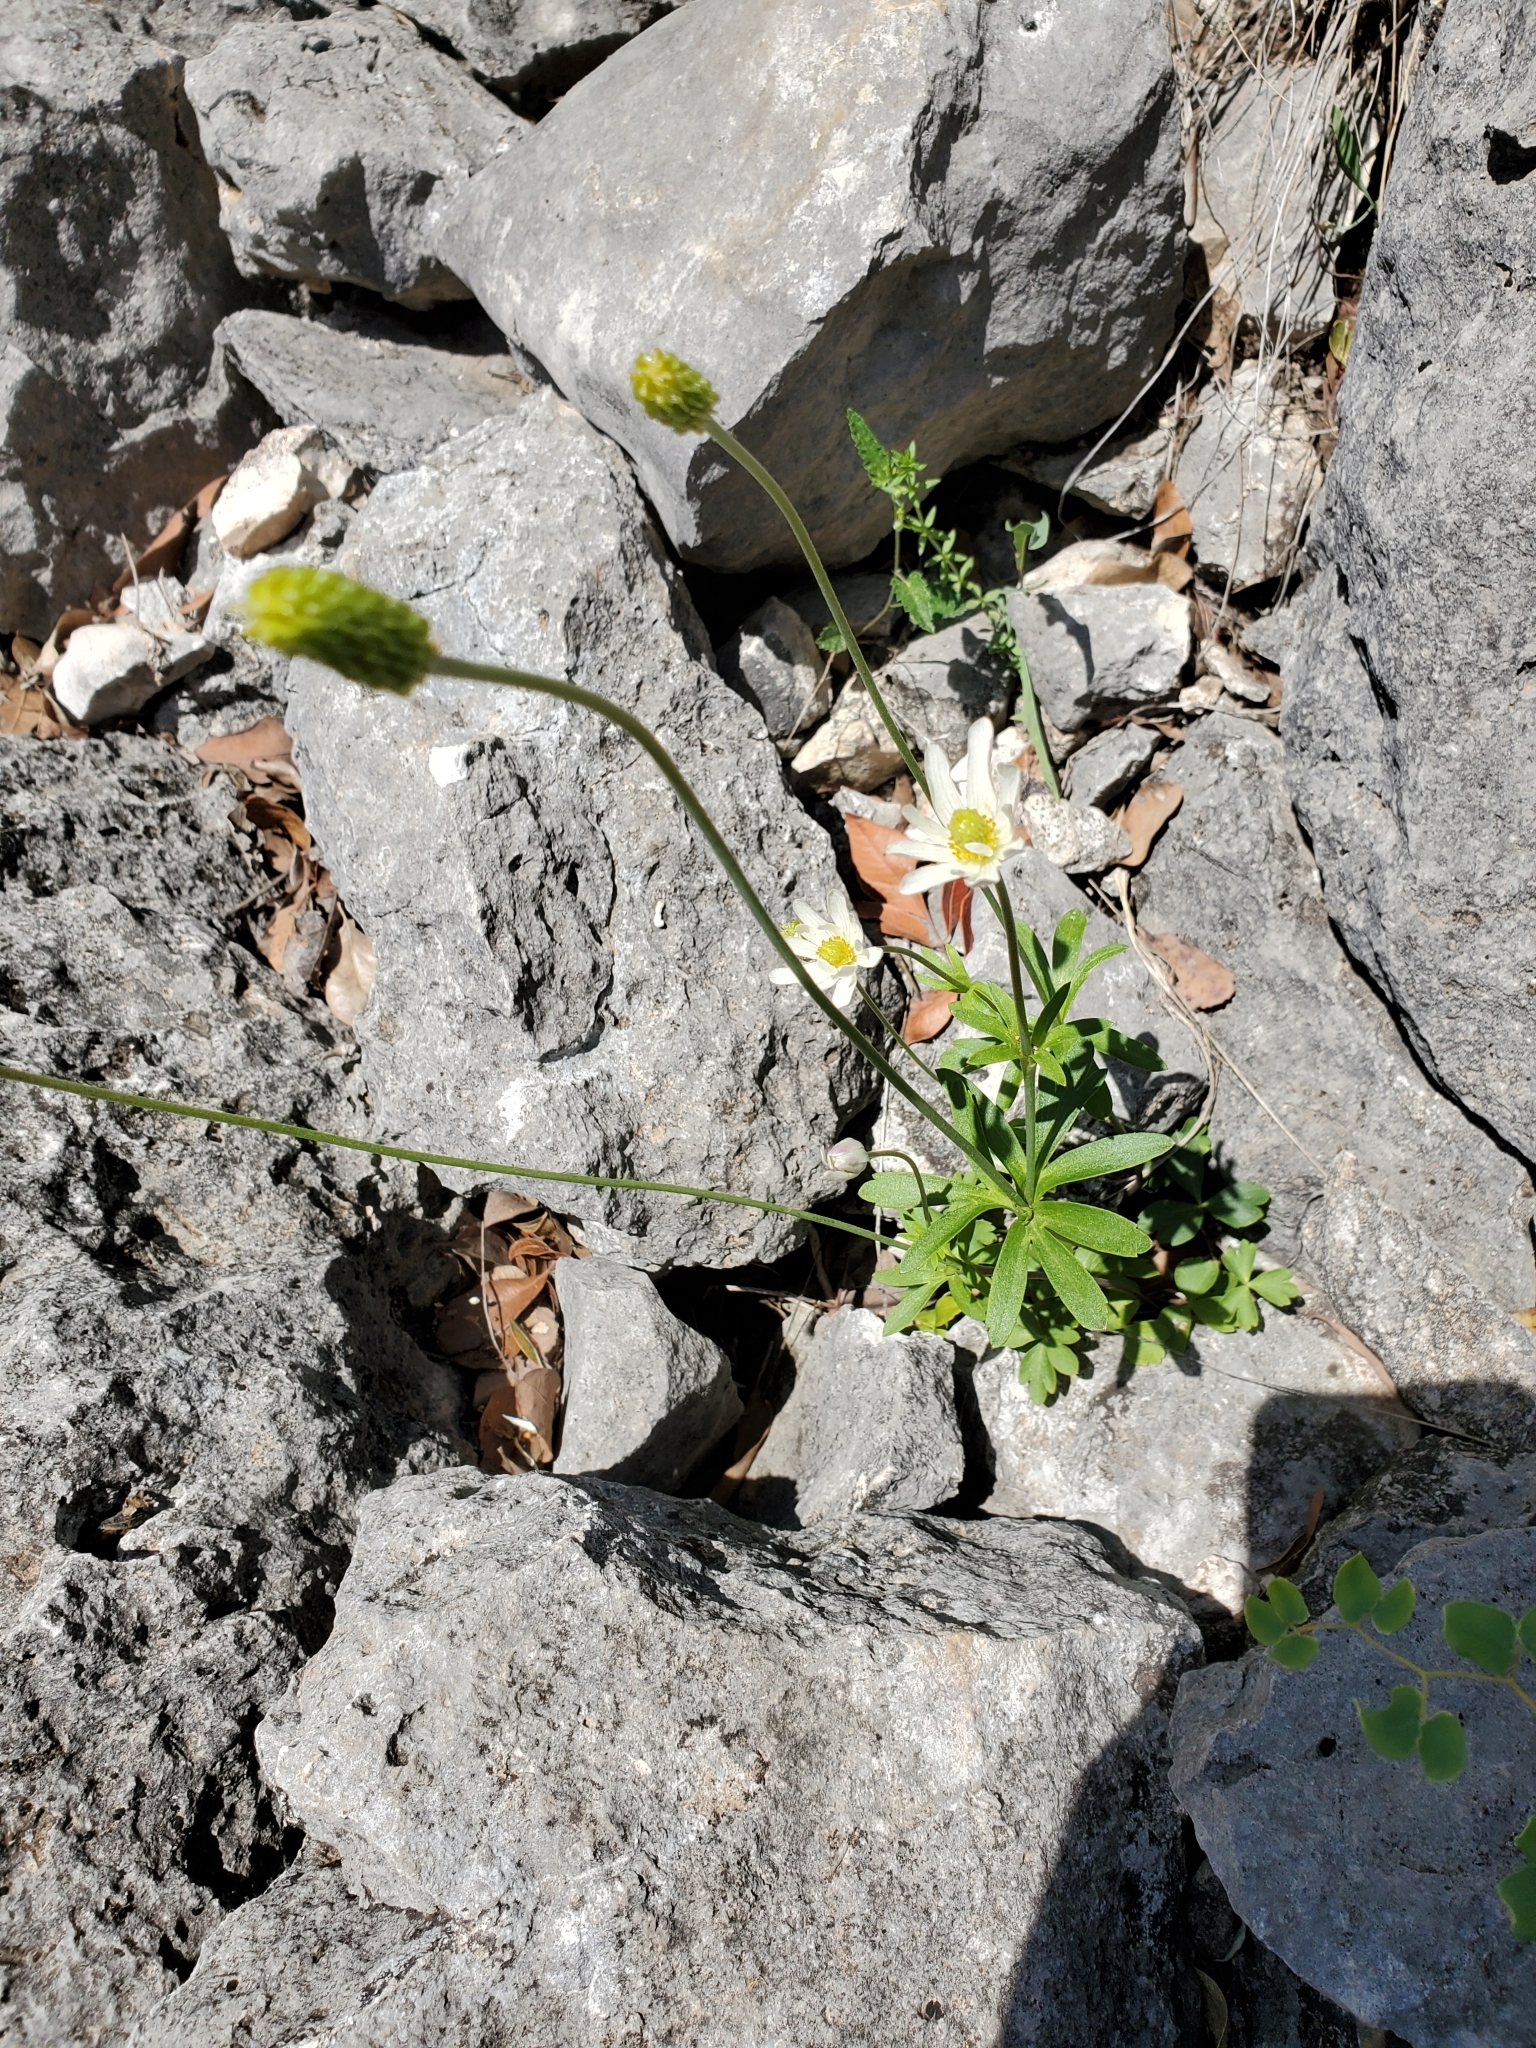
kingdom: Plantae
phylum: Tracheophyta
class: Magnoliopsida
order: Ranunculales
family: Ranunculaceae
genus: Anemone
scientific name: Anemone edwardsiana
